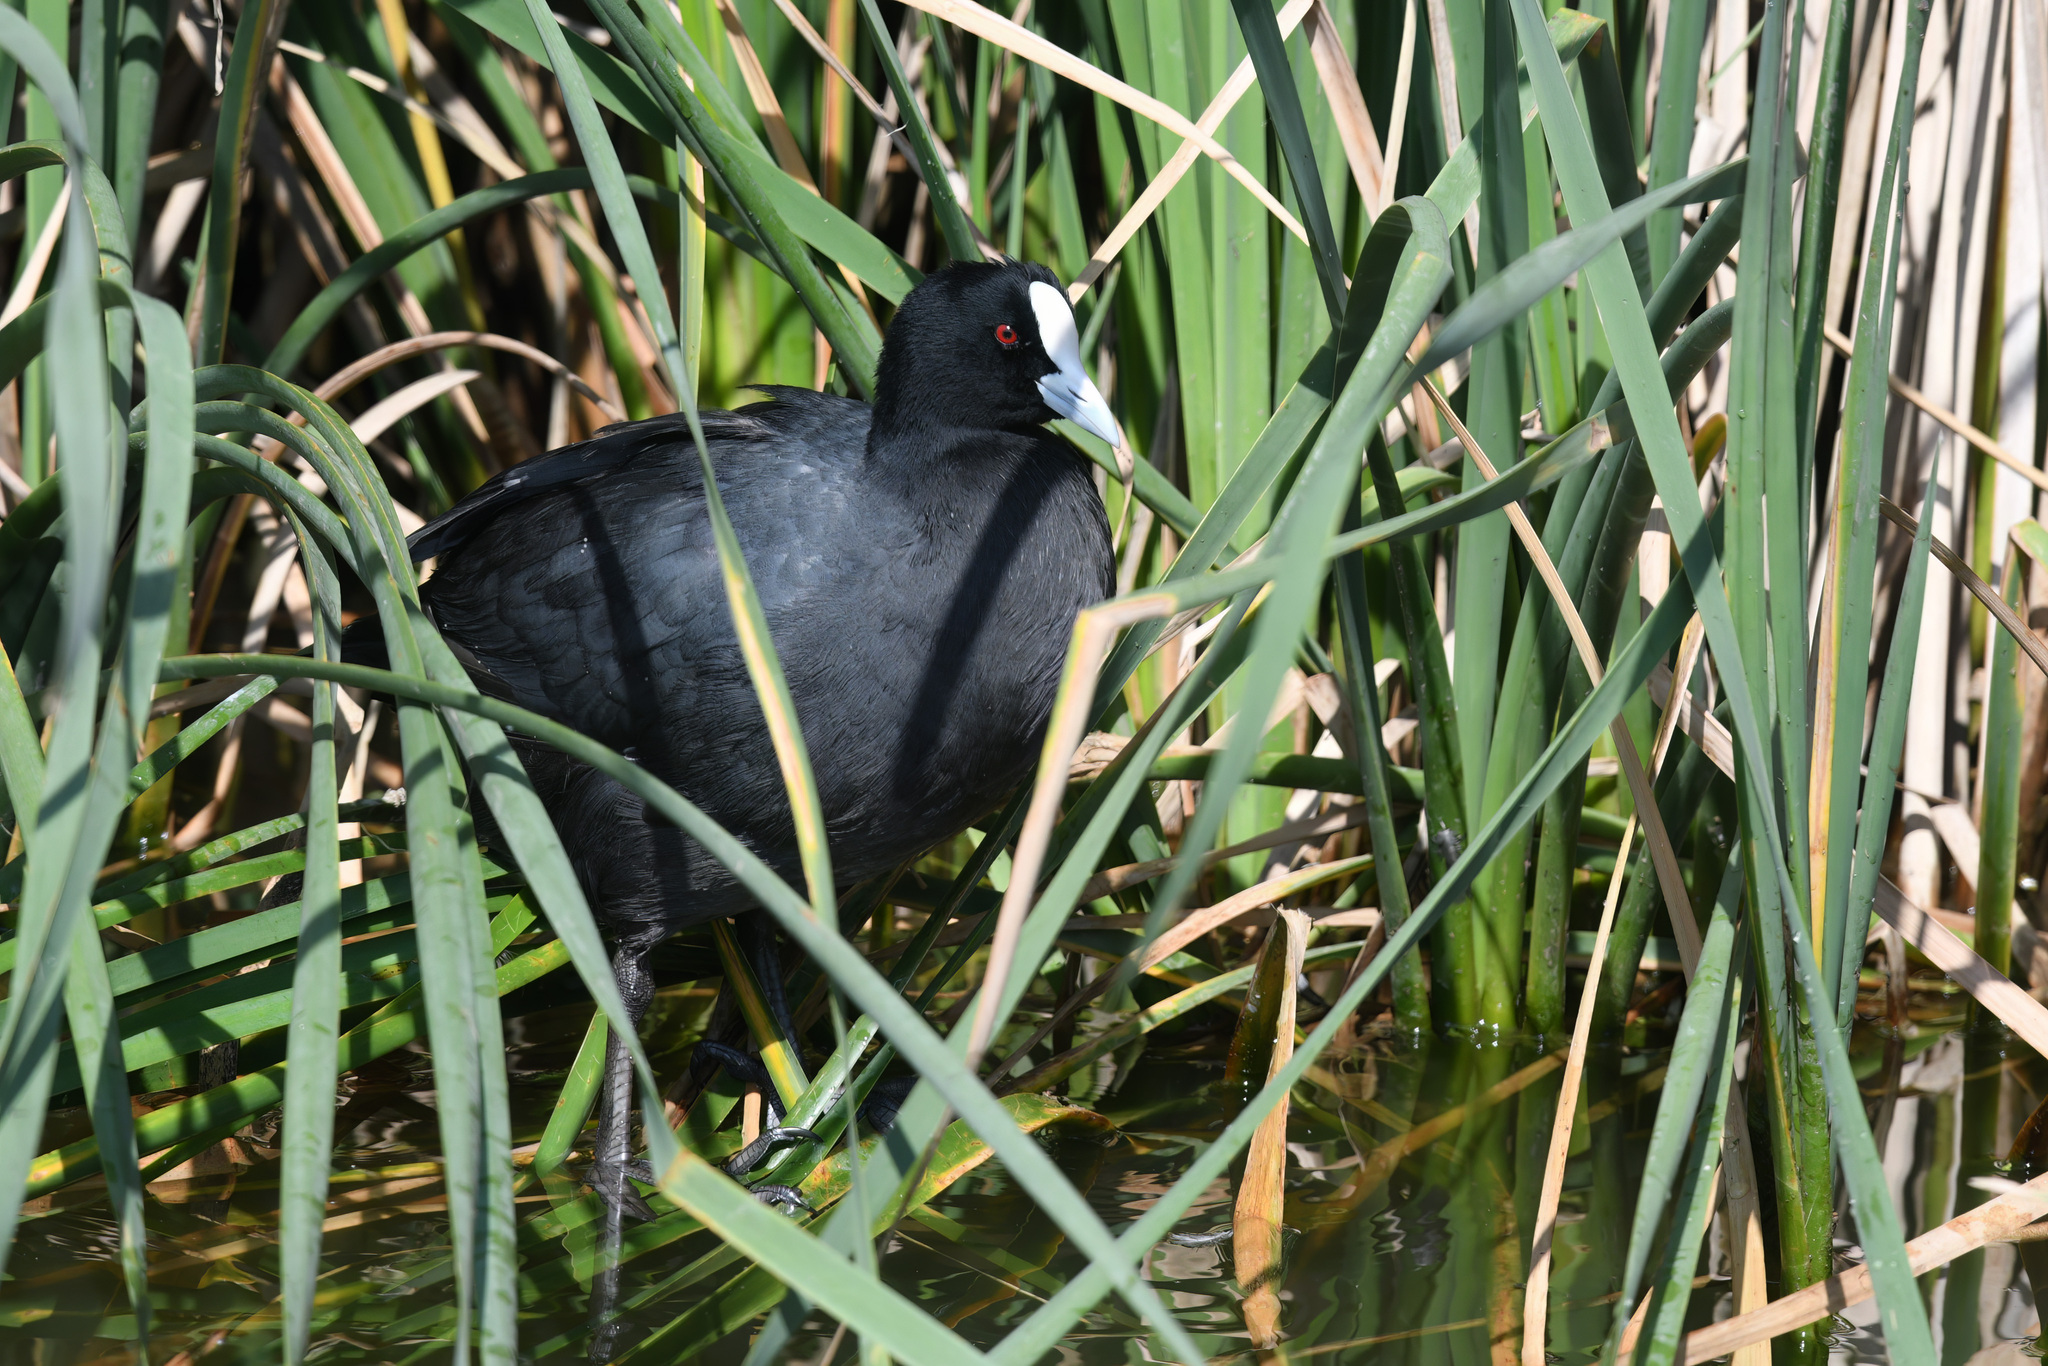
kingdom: Animalia
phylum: Chordata
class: Aves
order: Gruiformes
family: Rallidae
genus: Fulica
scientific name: Fulica atra
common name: Eurasian coot
